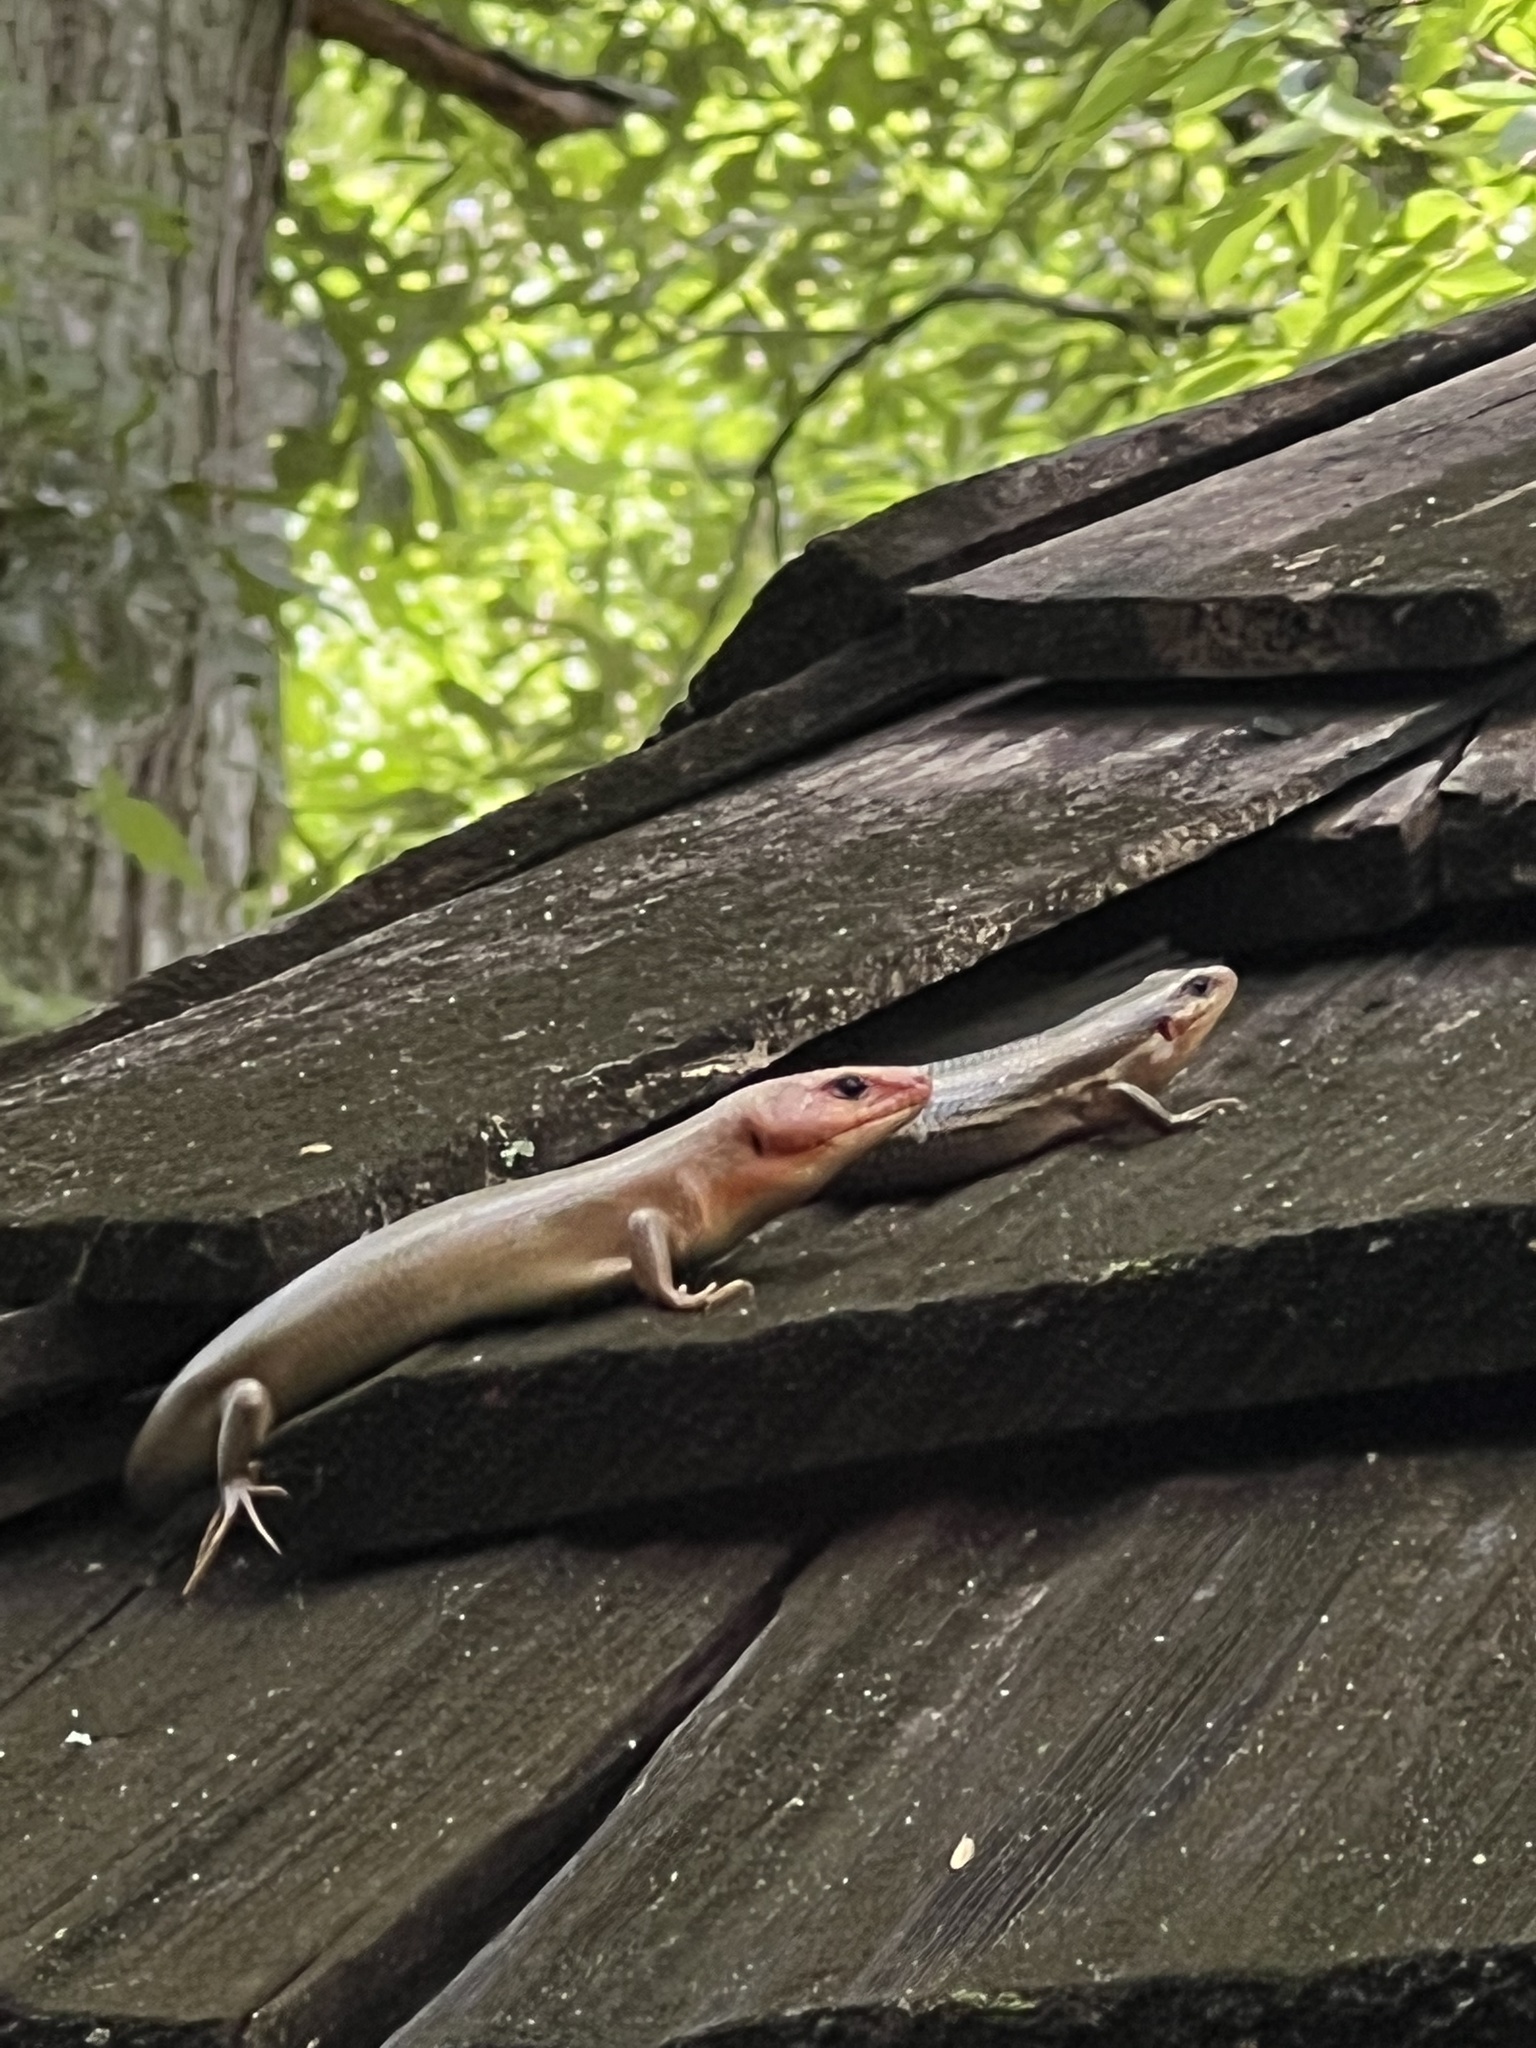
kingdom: Animalia
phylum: Chordata
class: Squamata
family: Scincidae
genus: Plestiodon
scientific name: Plestiodon laticeps
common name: Broadhead skink
